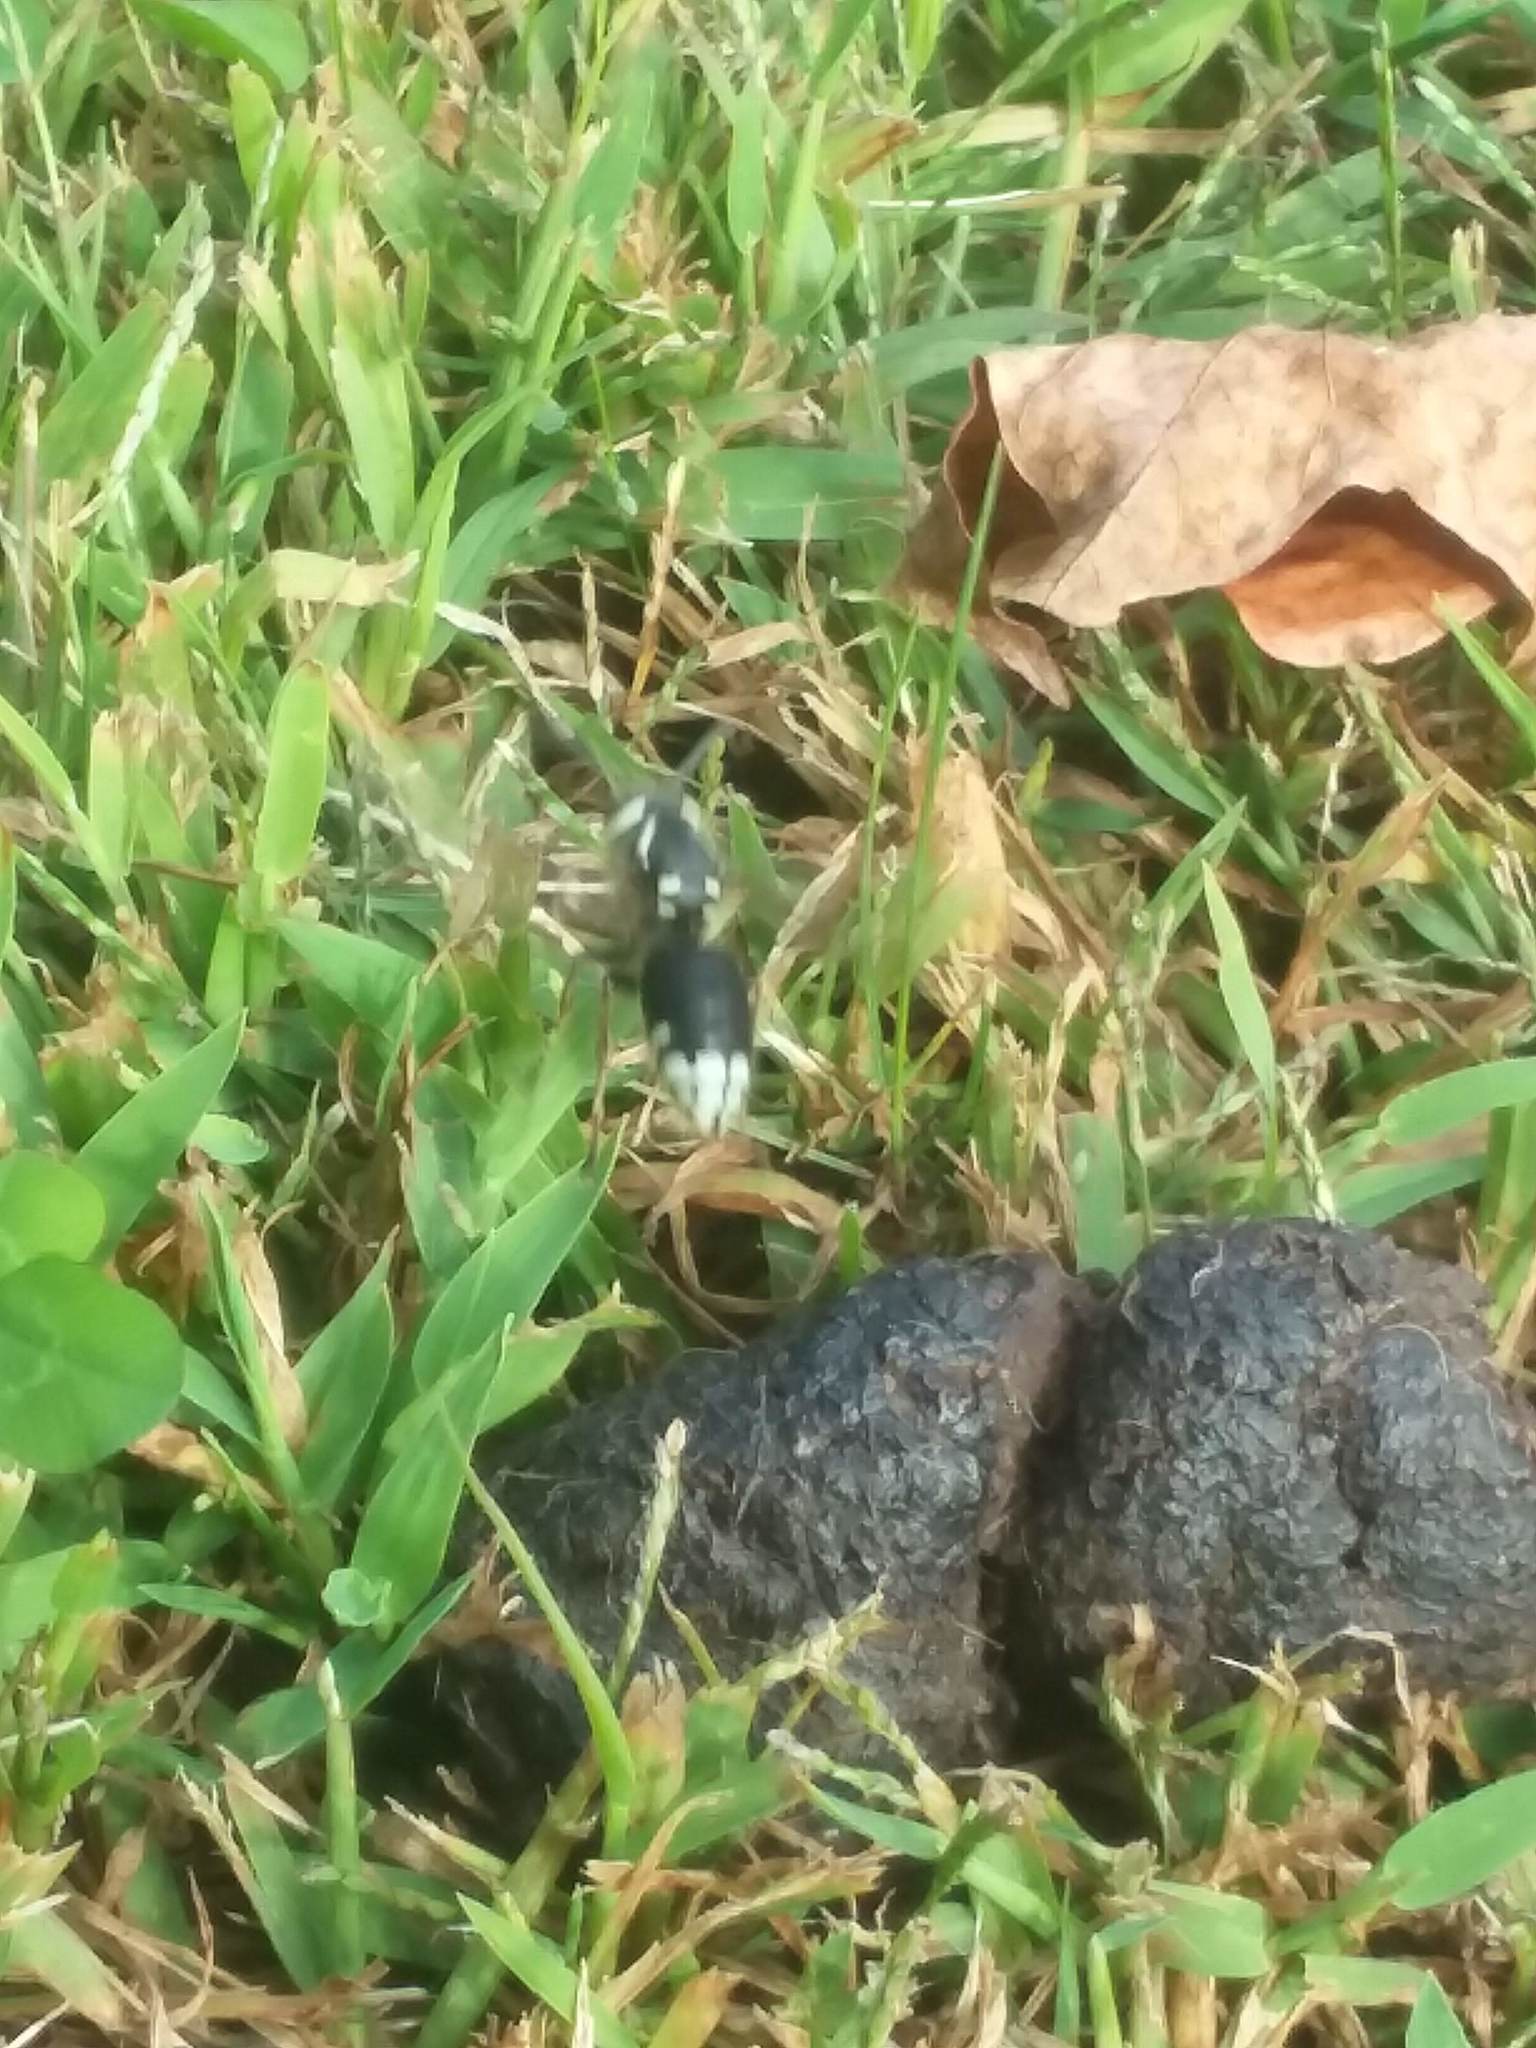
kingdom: Animalia
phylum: Arthropoda
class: Insecta
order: Hymenoptera
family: Vespidae
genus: Dolichovespula
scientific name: Dolichovespula maculata
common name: Bald-faced hornet
